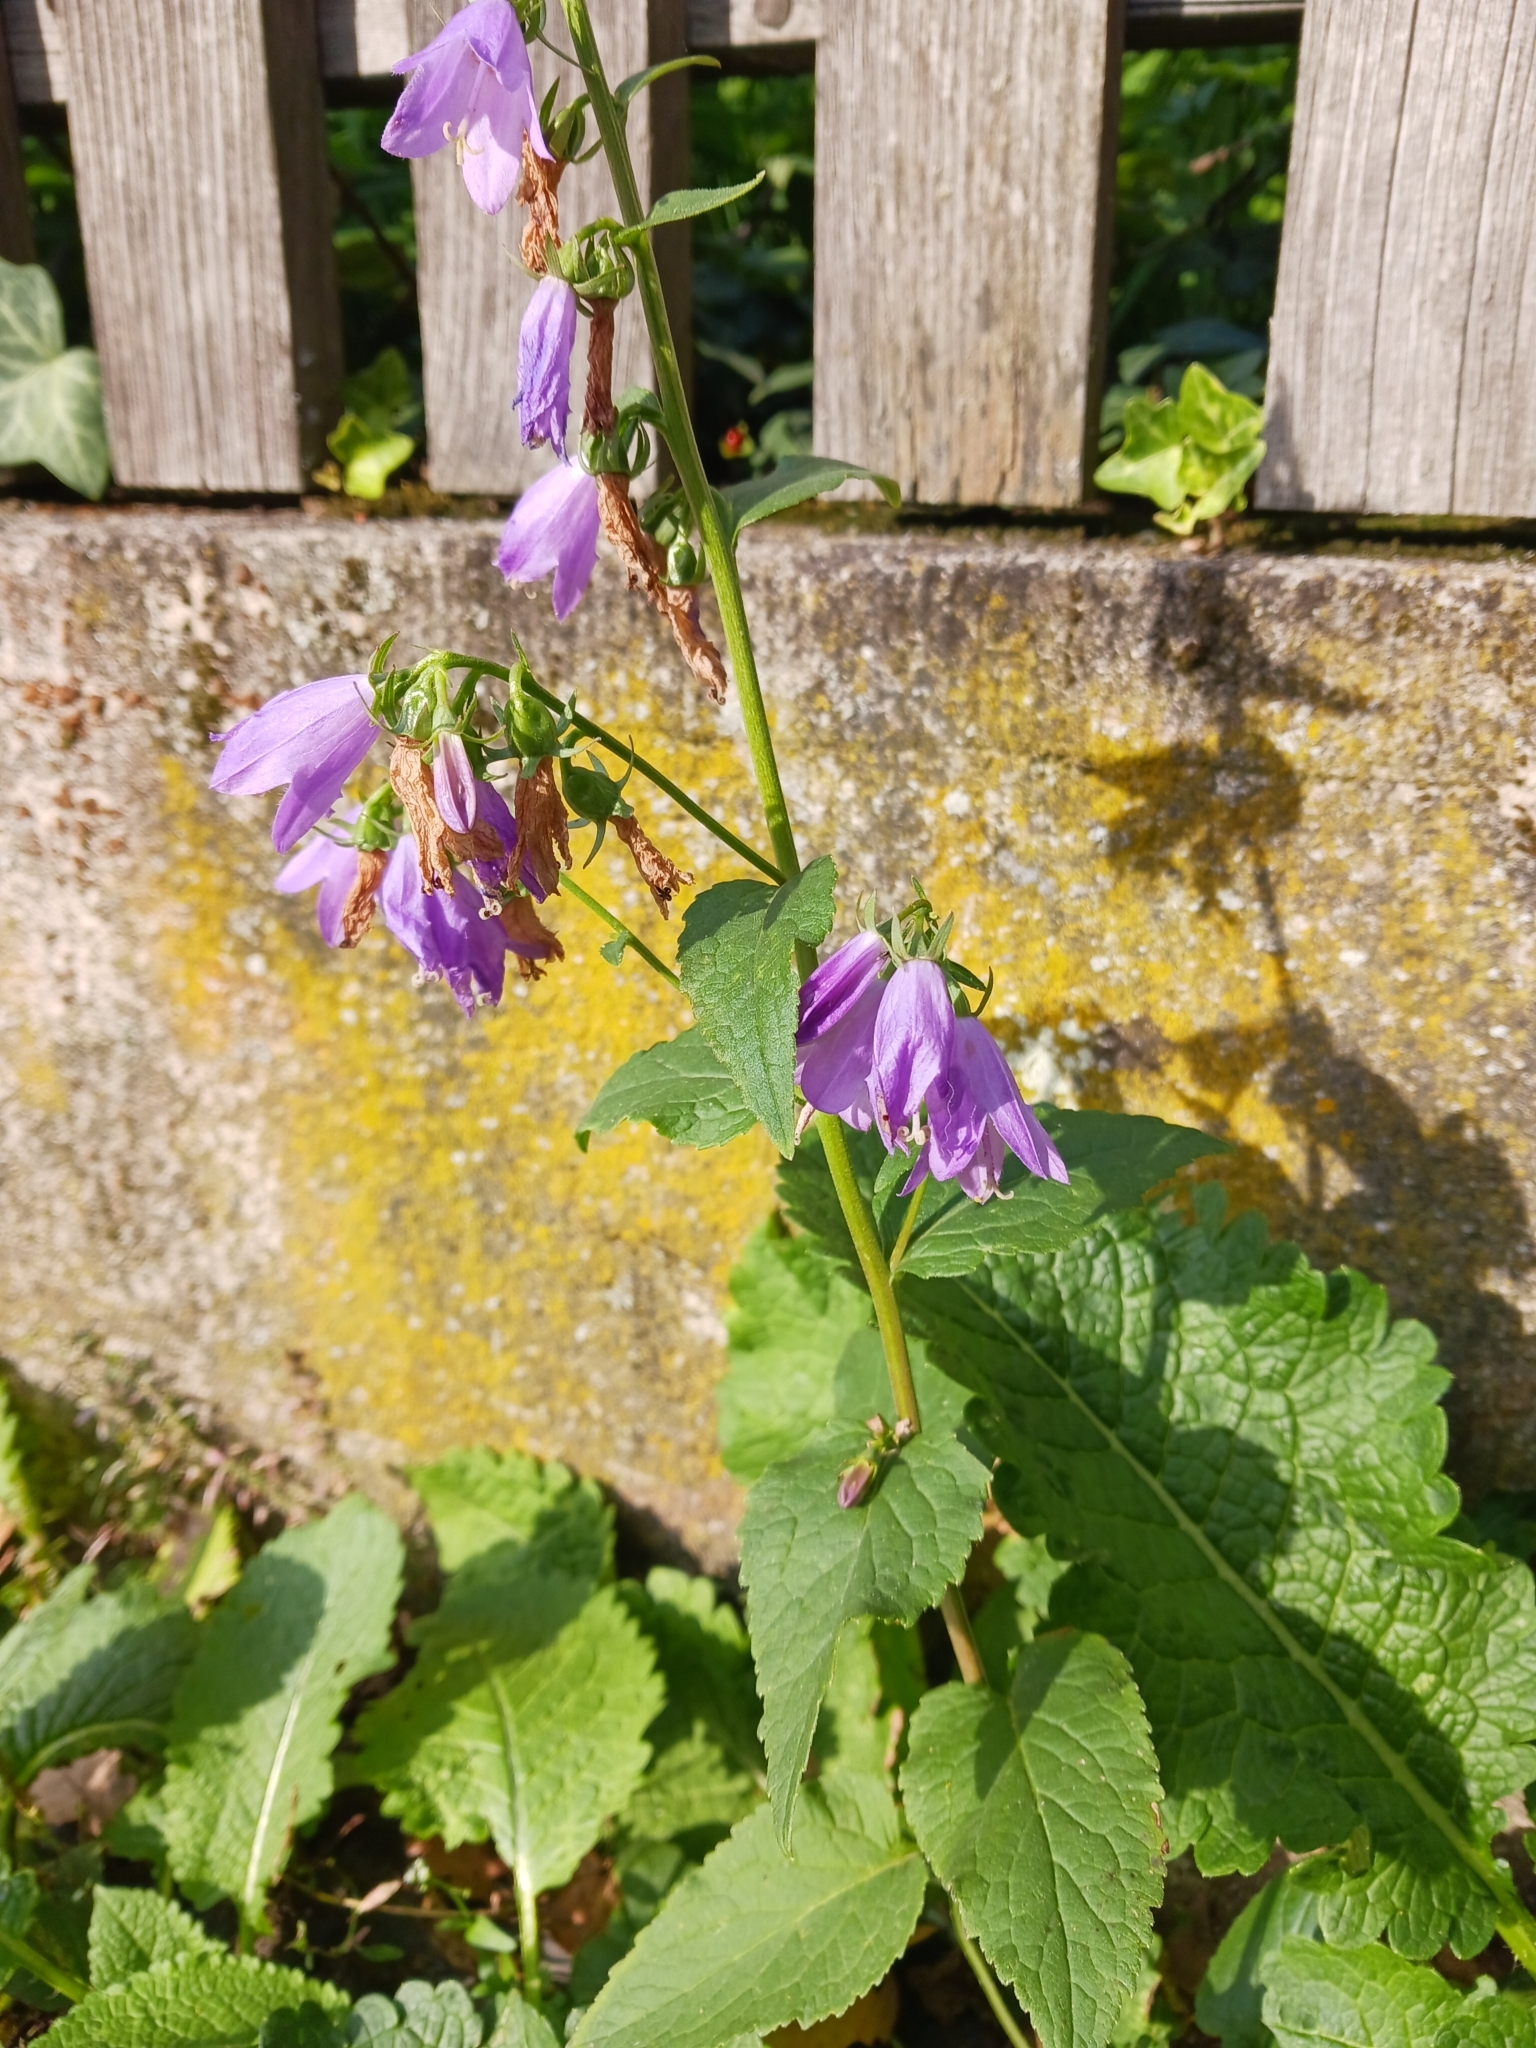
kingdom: Plantae
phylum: Tracheophyta
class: Magnoliopsida
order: Asterales
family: Campanulaceae
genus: Campanula
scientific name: Campanula rapunculoides
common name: Creeping bellflower
